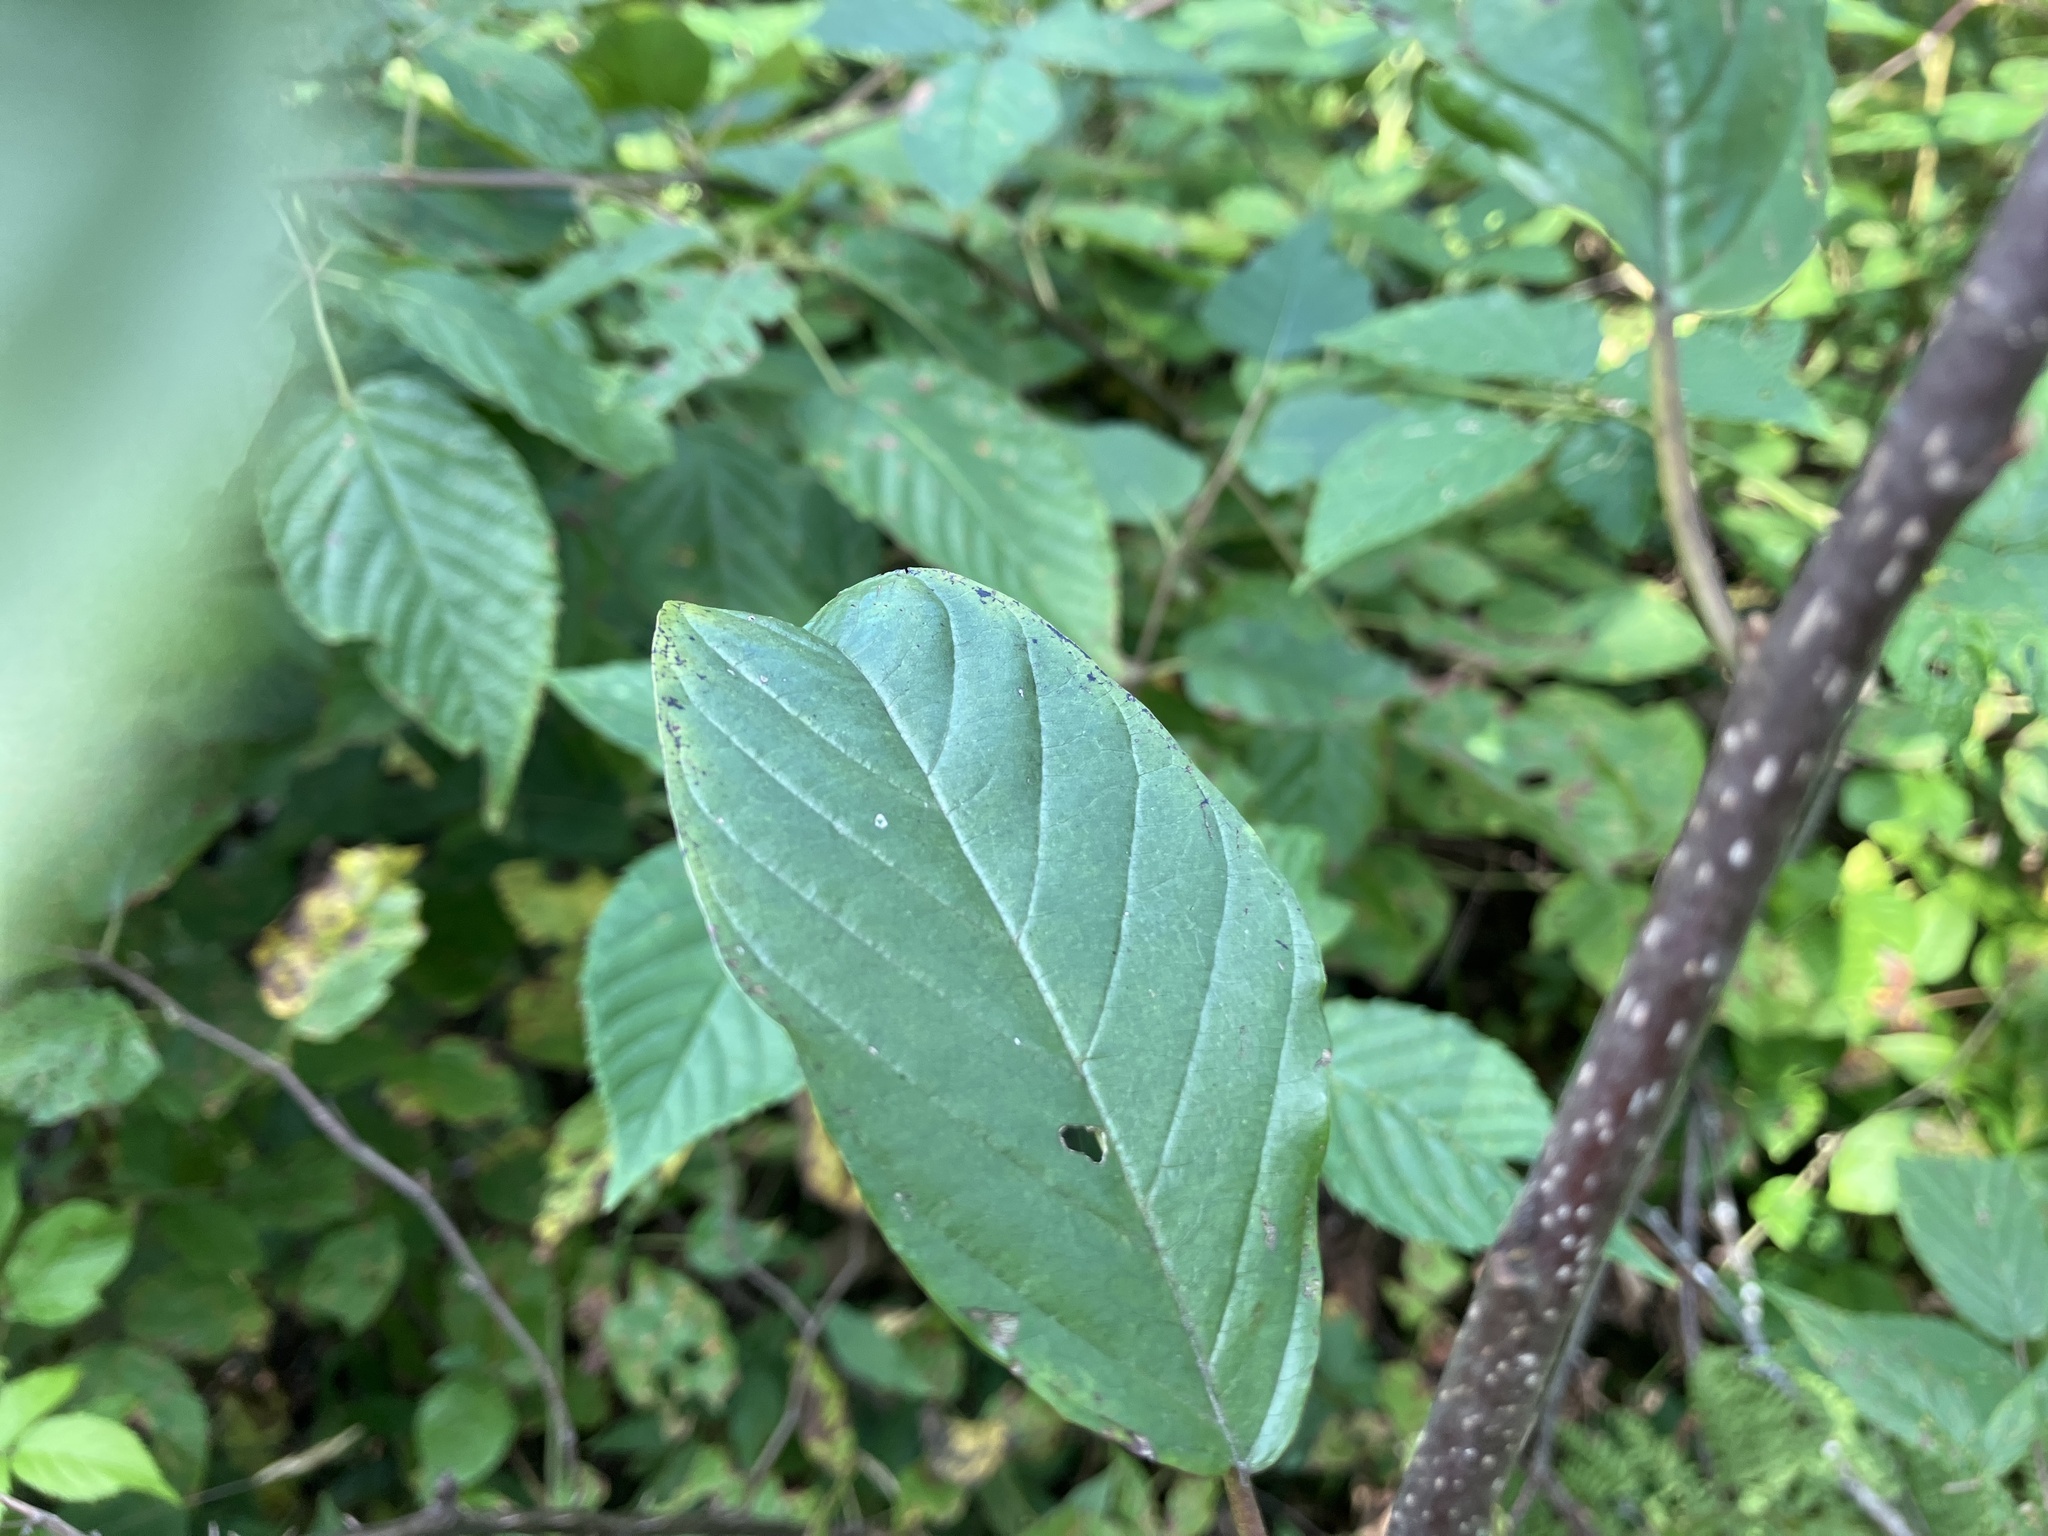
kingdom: Plantae
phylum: Tracheophyta
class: Magnoliopsida
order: Rosales
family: Rhamnaceae
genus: Frangula
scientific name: Frangula alnus
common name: Alder buckthorn
